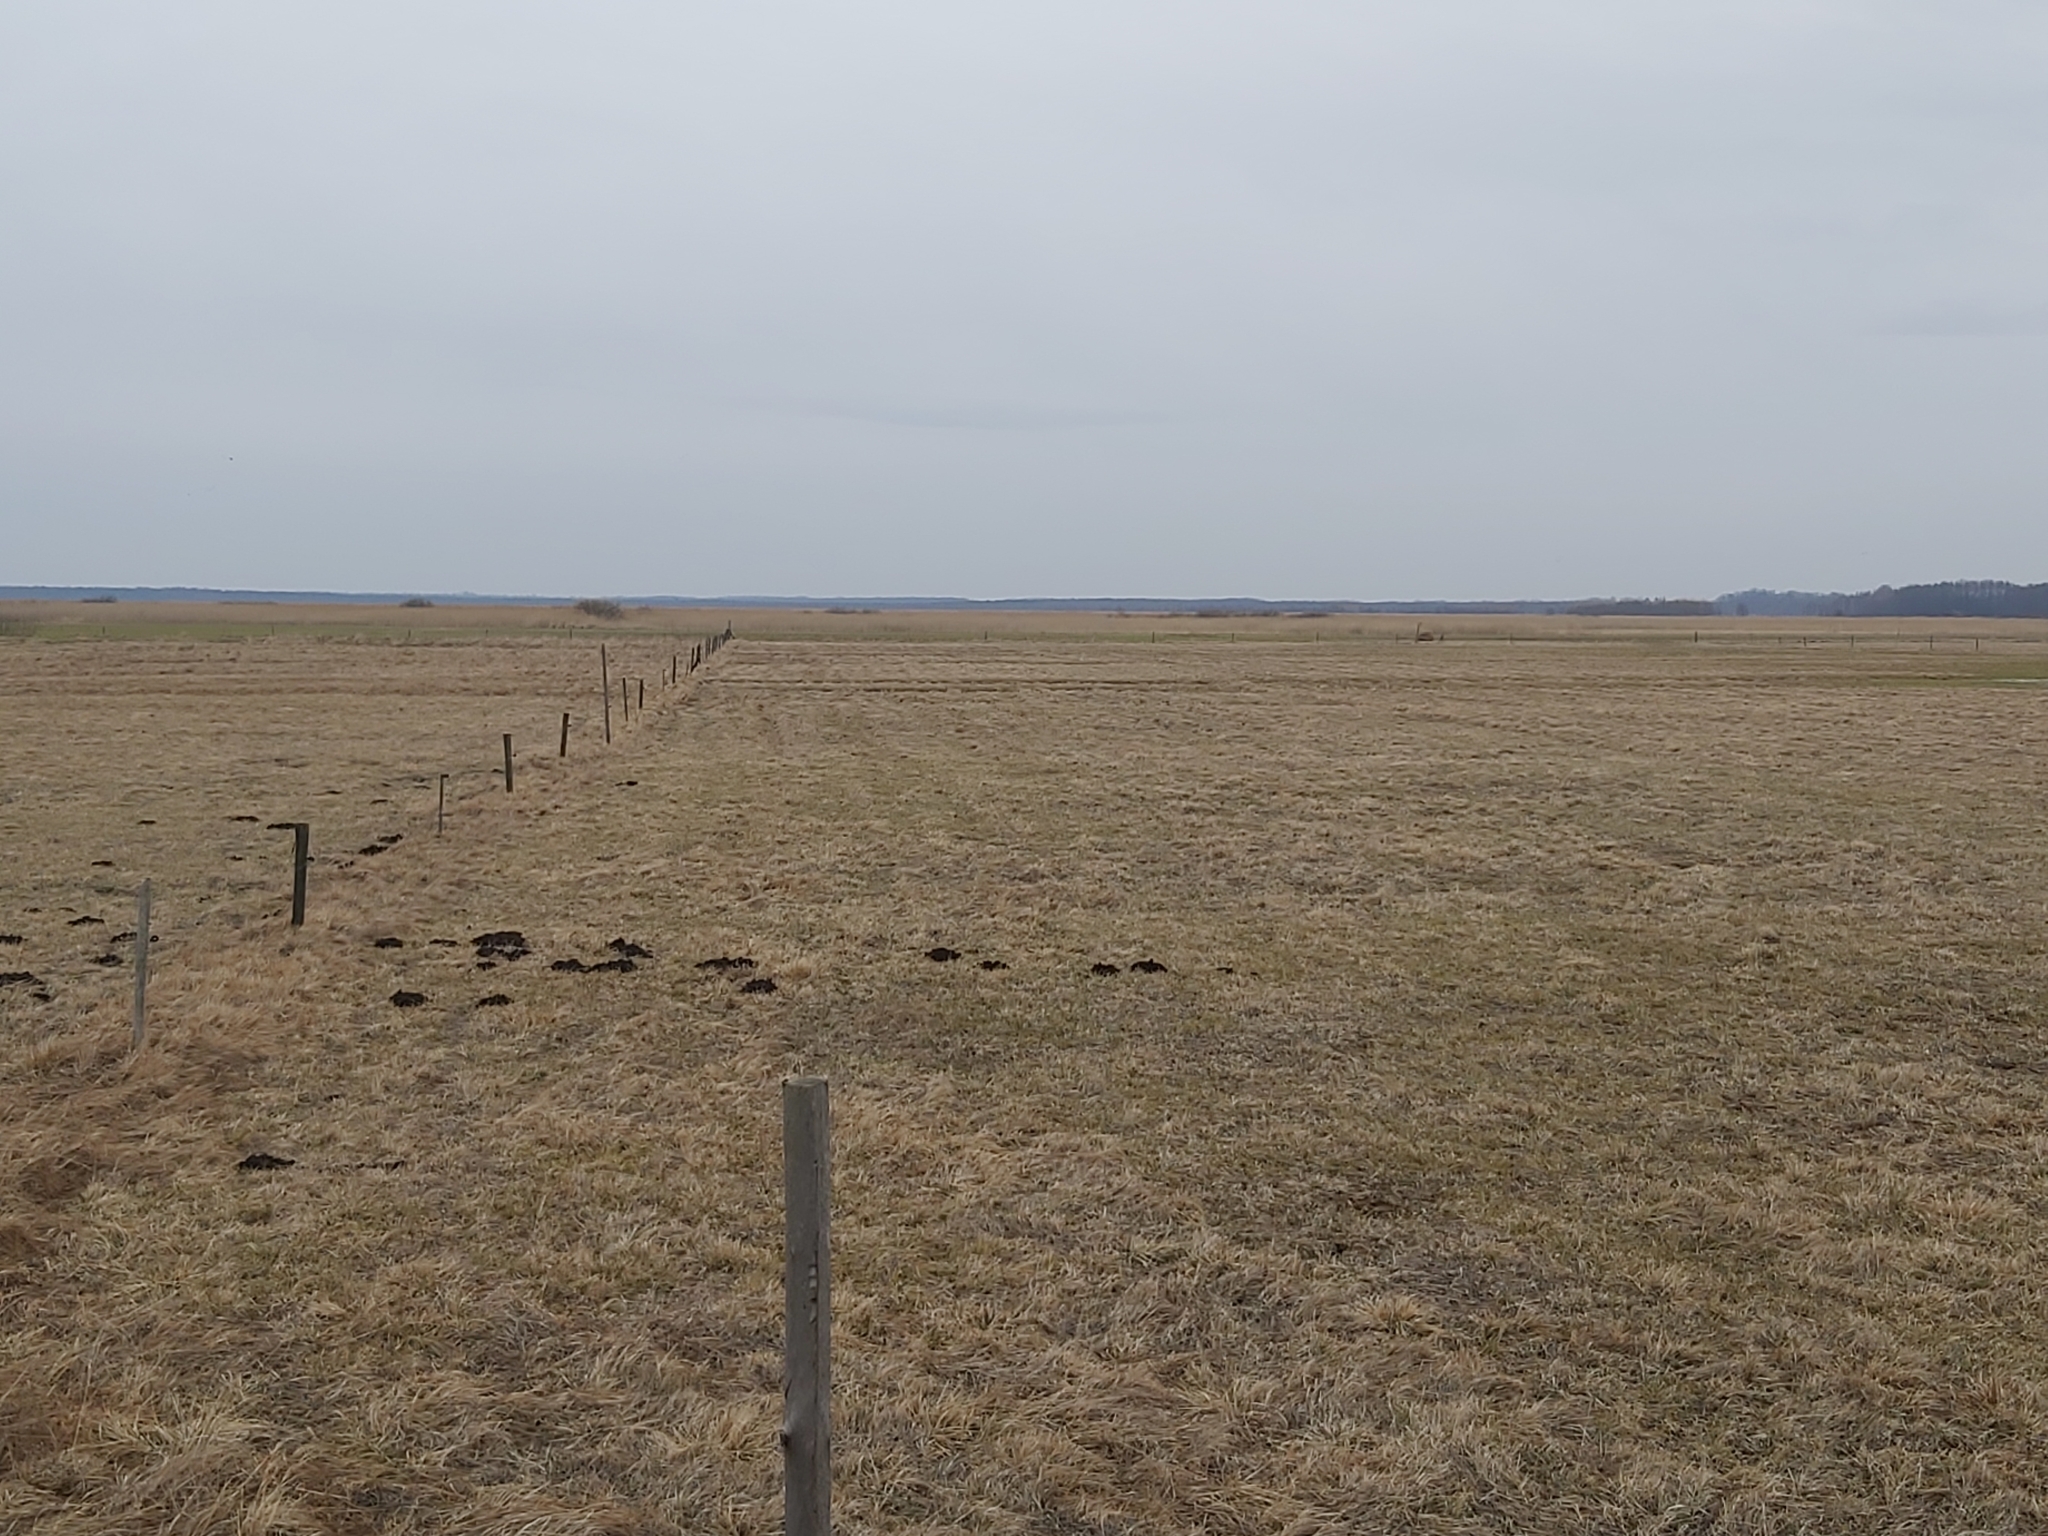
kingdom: Animalia
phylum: Chordata
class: Aves
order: Passeriformes
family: Alaudidae
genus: Alauda
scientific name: Alauda arvensis
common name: Eurasian skylark
